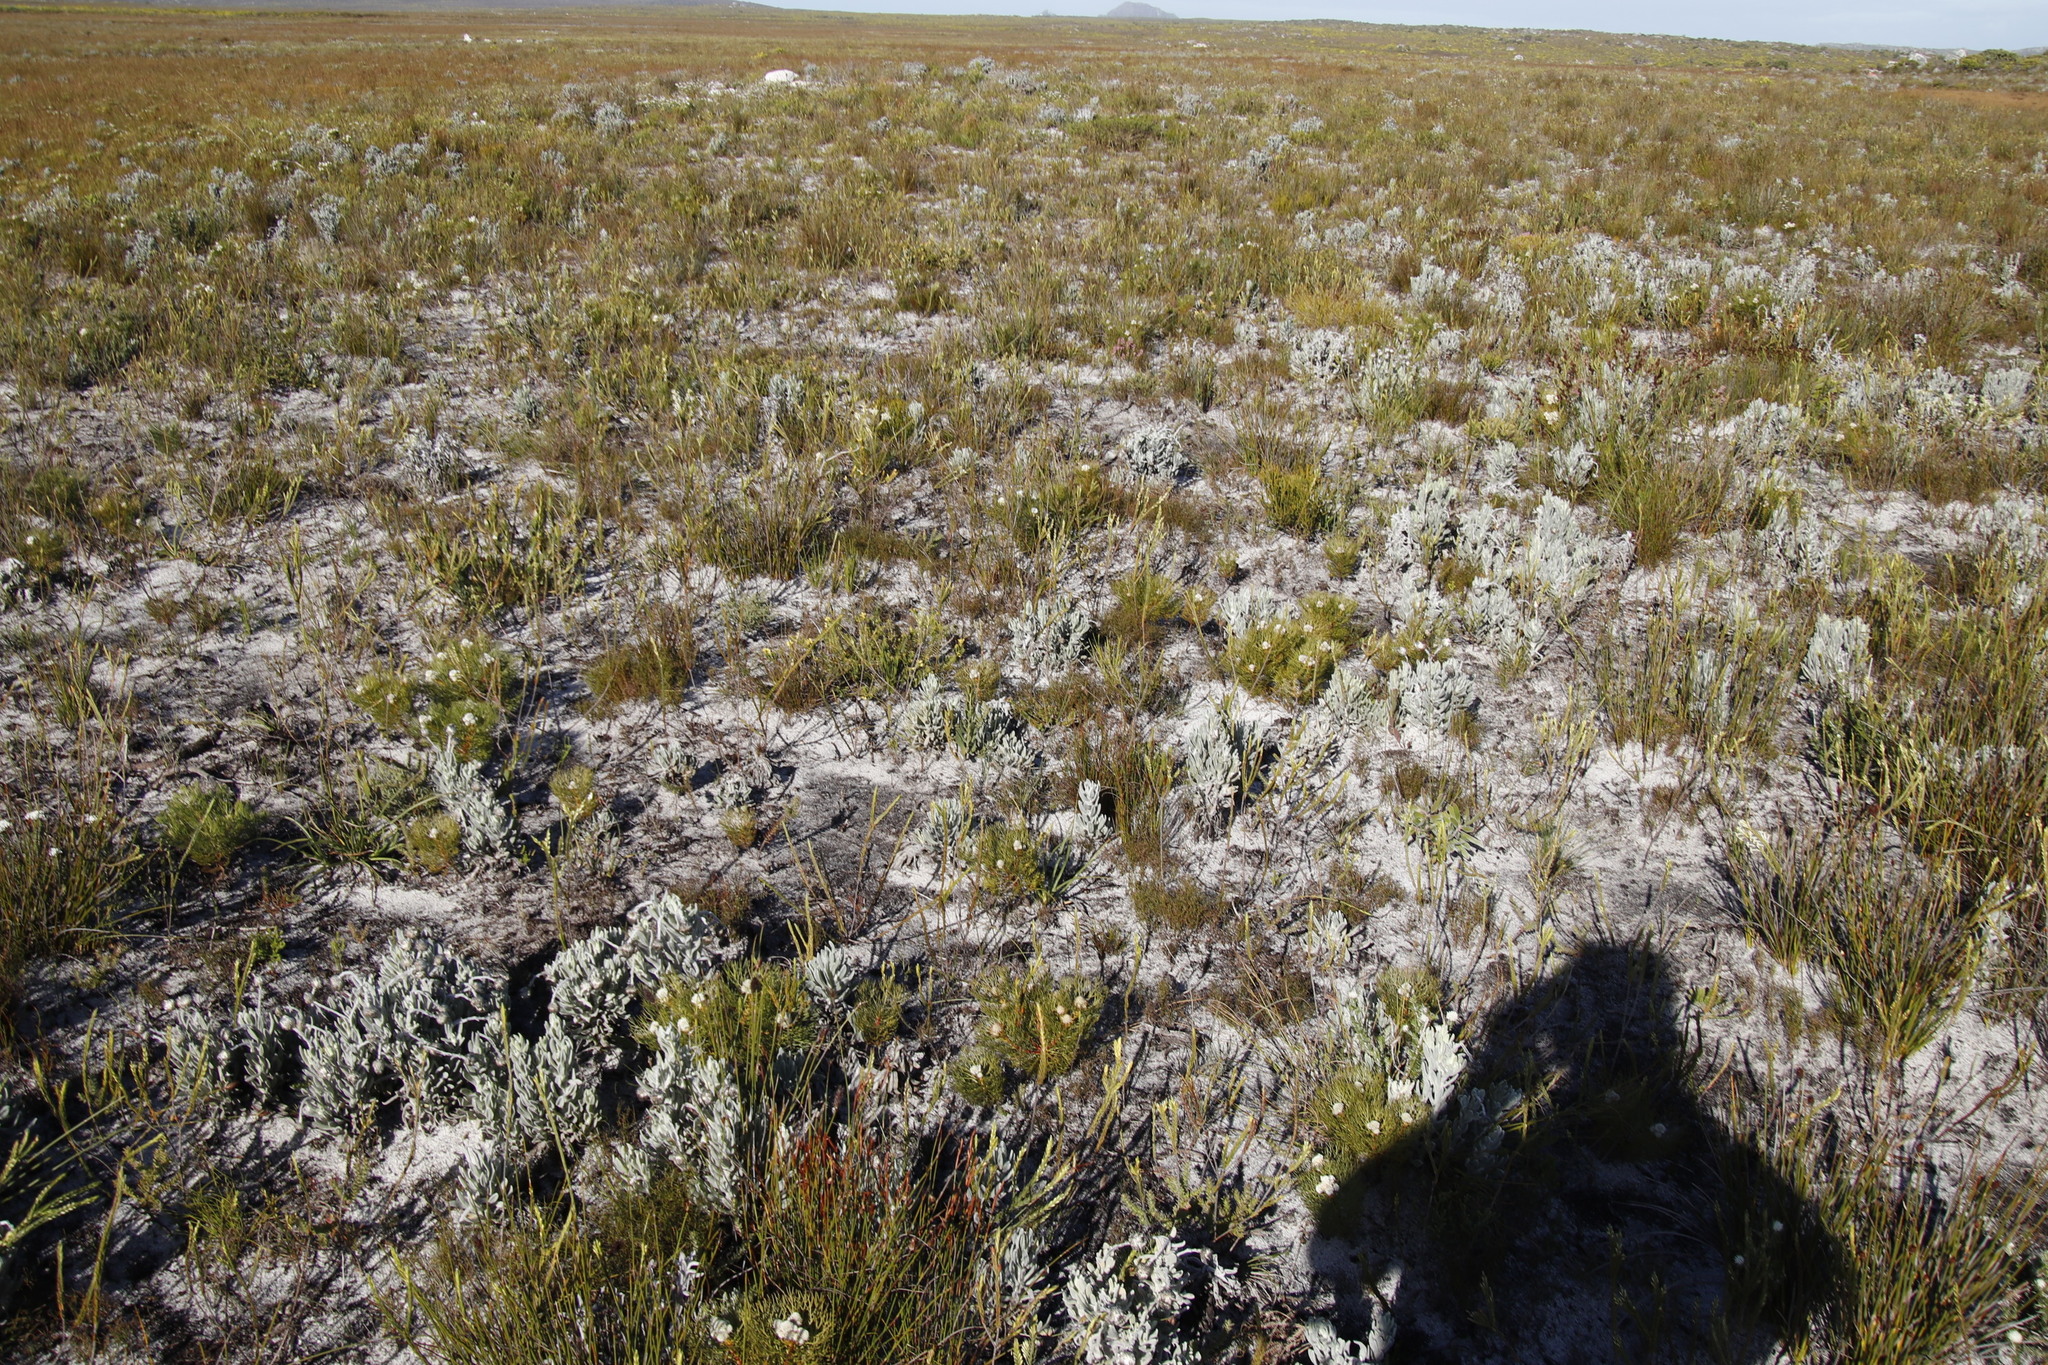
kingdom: Plantae
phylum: Tracheophyta
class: Magnoliopsida
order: Proteales
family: Proteaceae
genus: Serruria
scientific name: Serruria glomerata
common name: Cluster spiderhead
